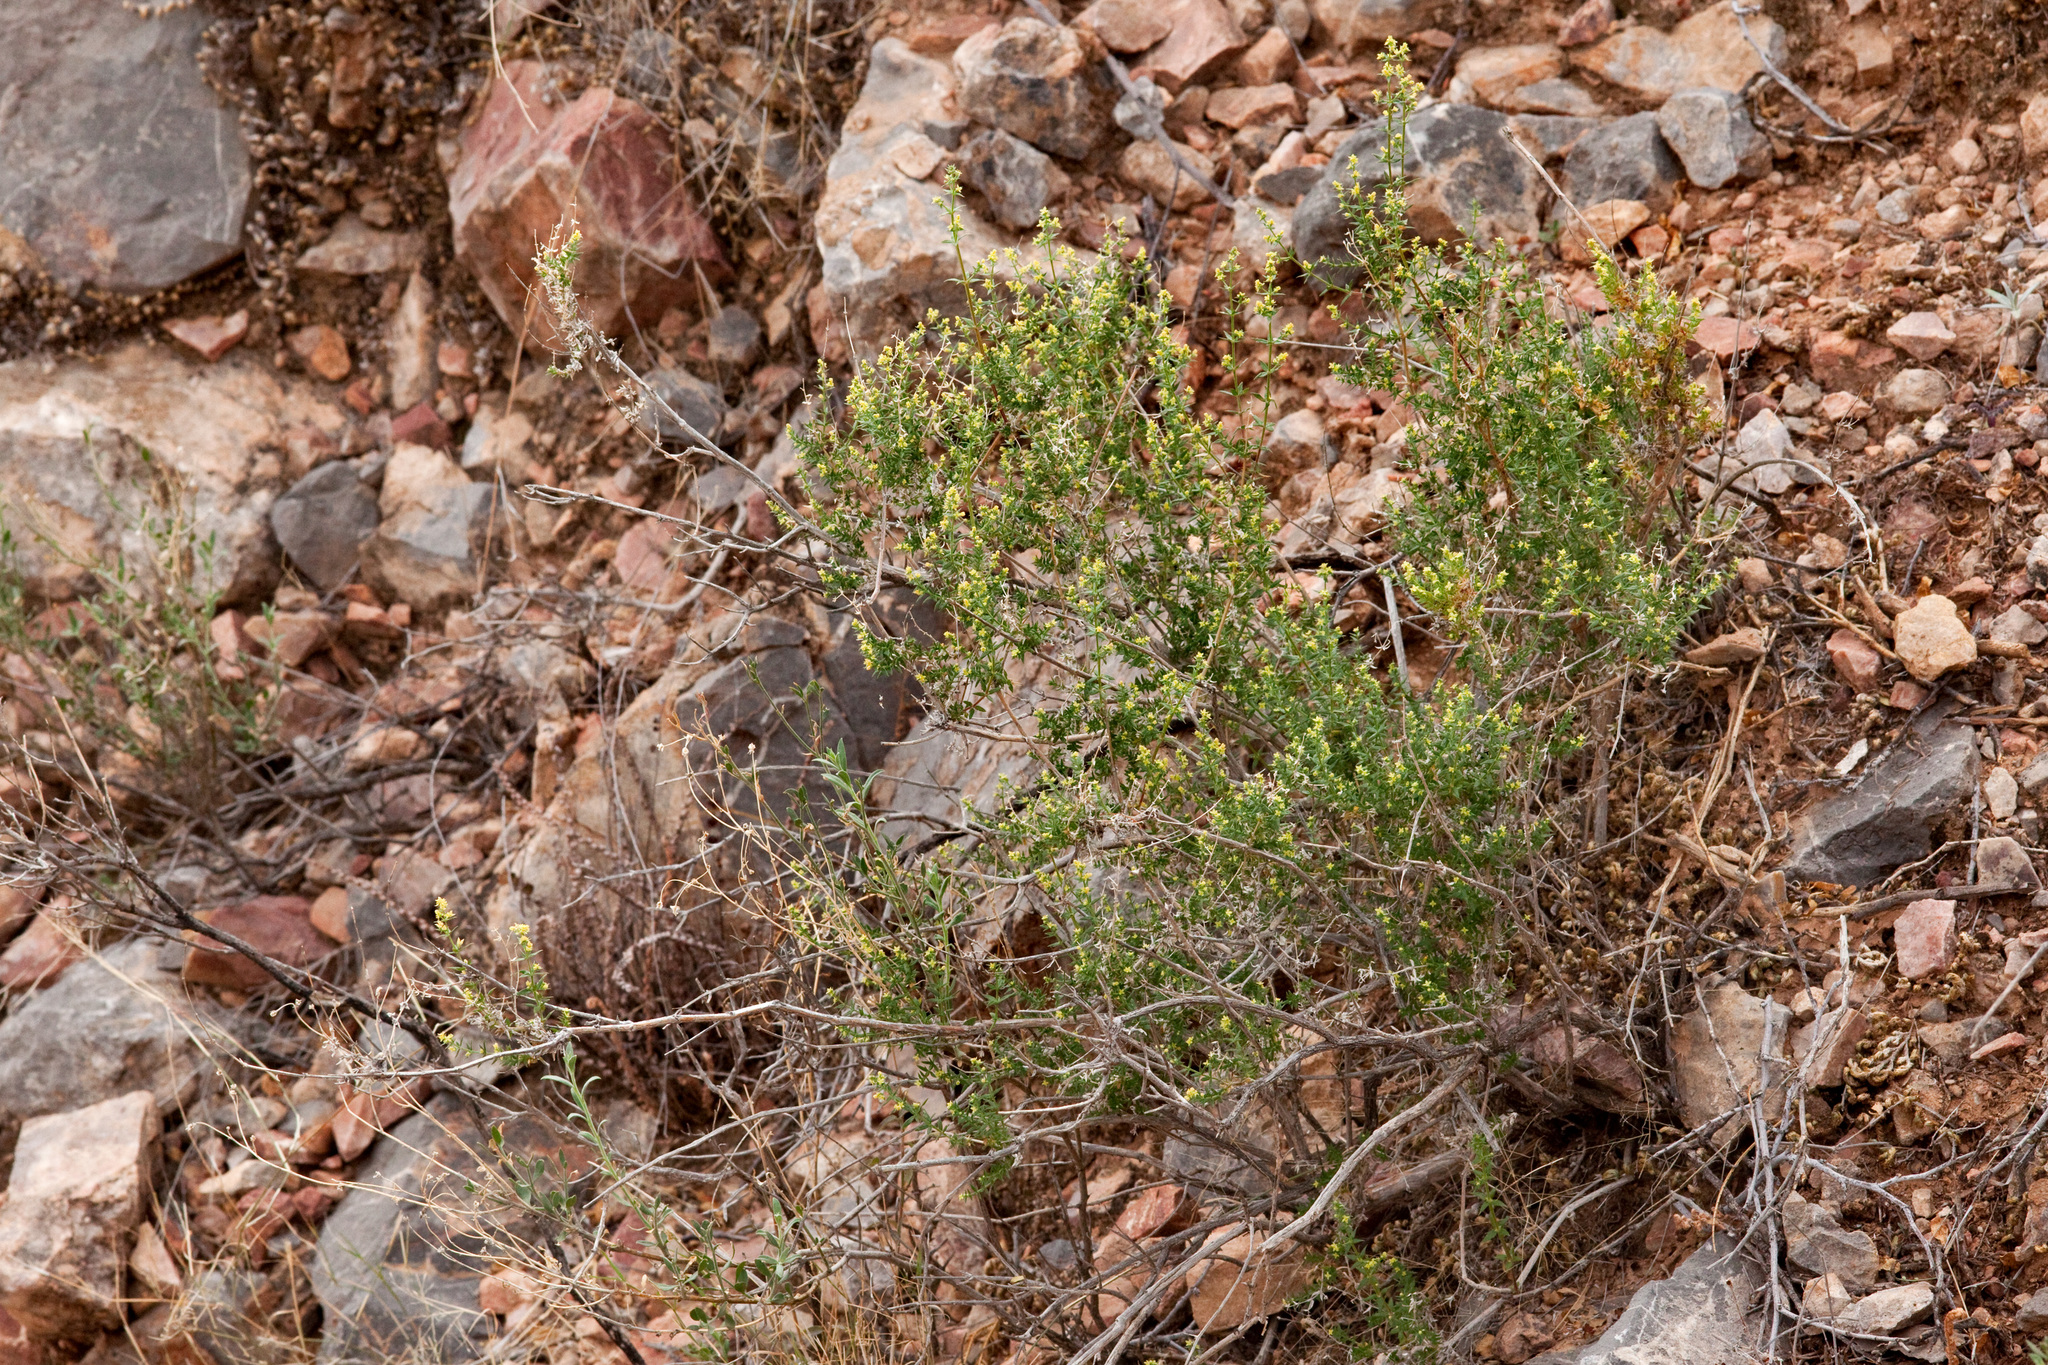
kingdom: Plantae
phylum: Tracheophyta
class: Magnoliopsida
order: Gentianales
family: Rubiaceae
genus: Galium
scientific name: Galium stellatum
